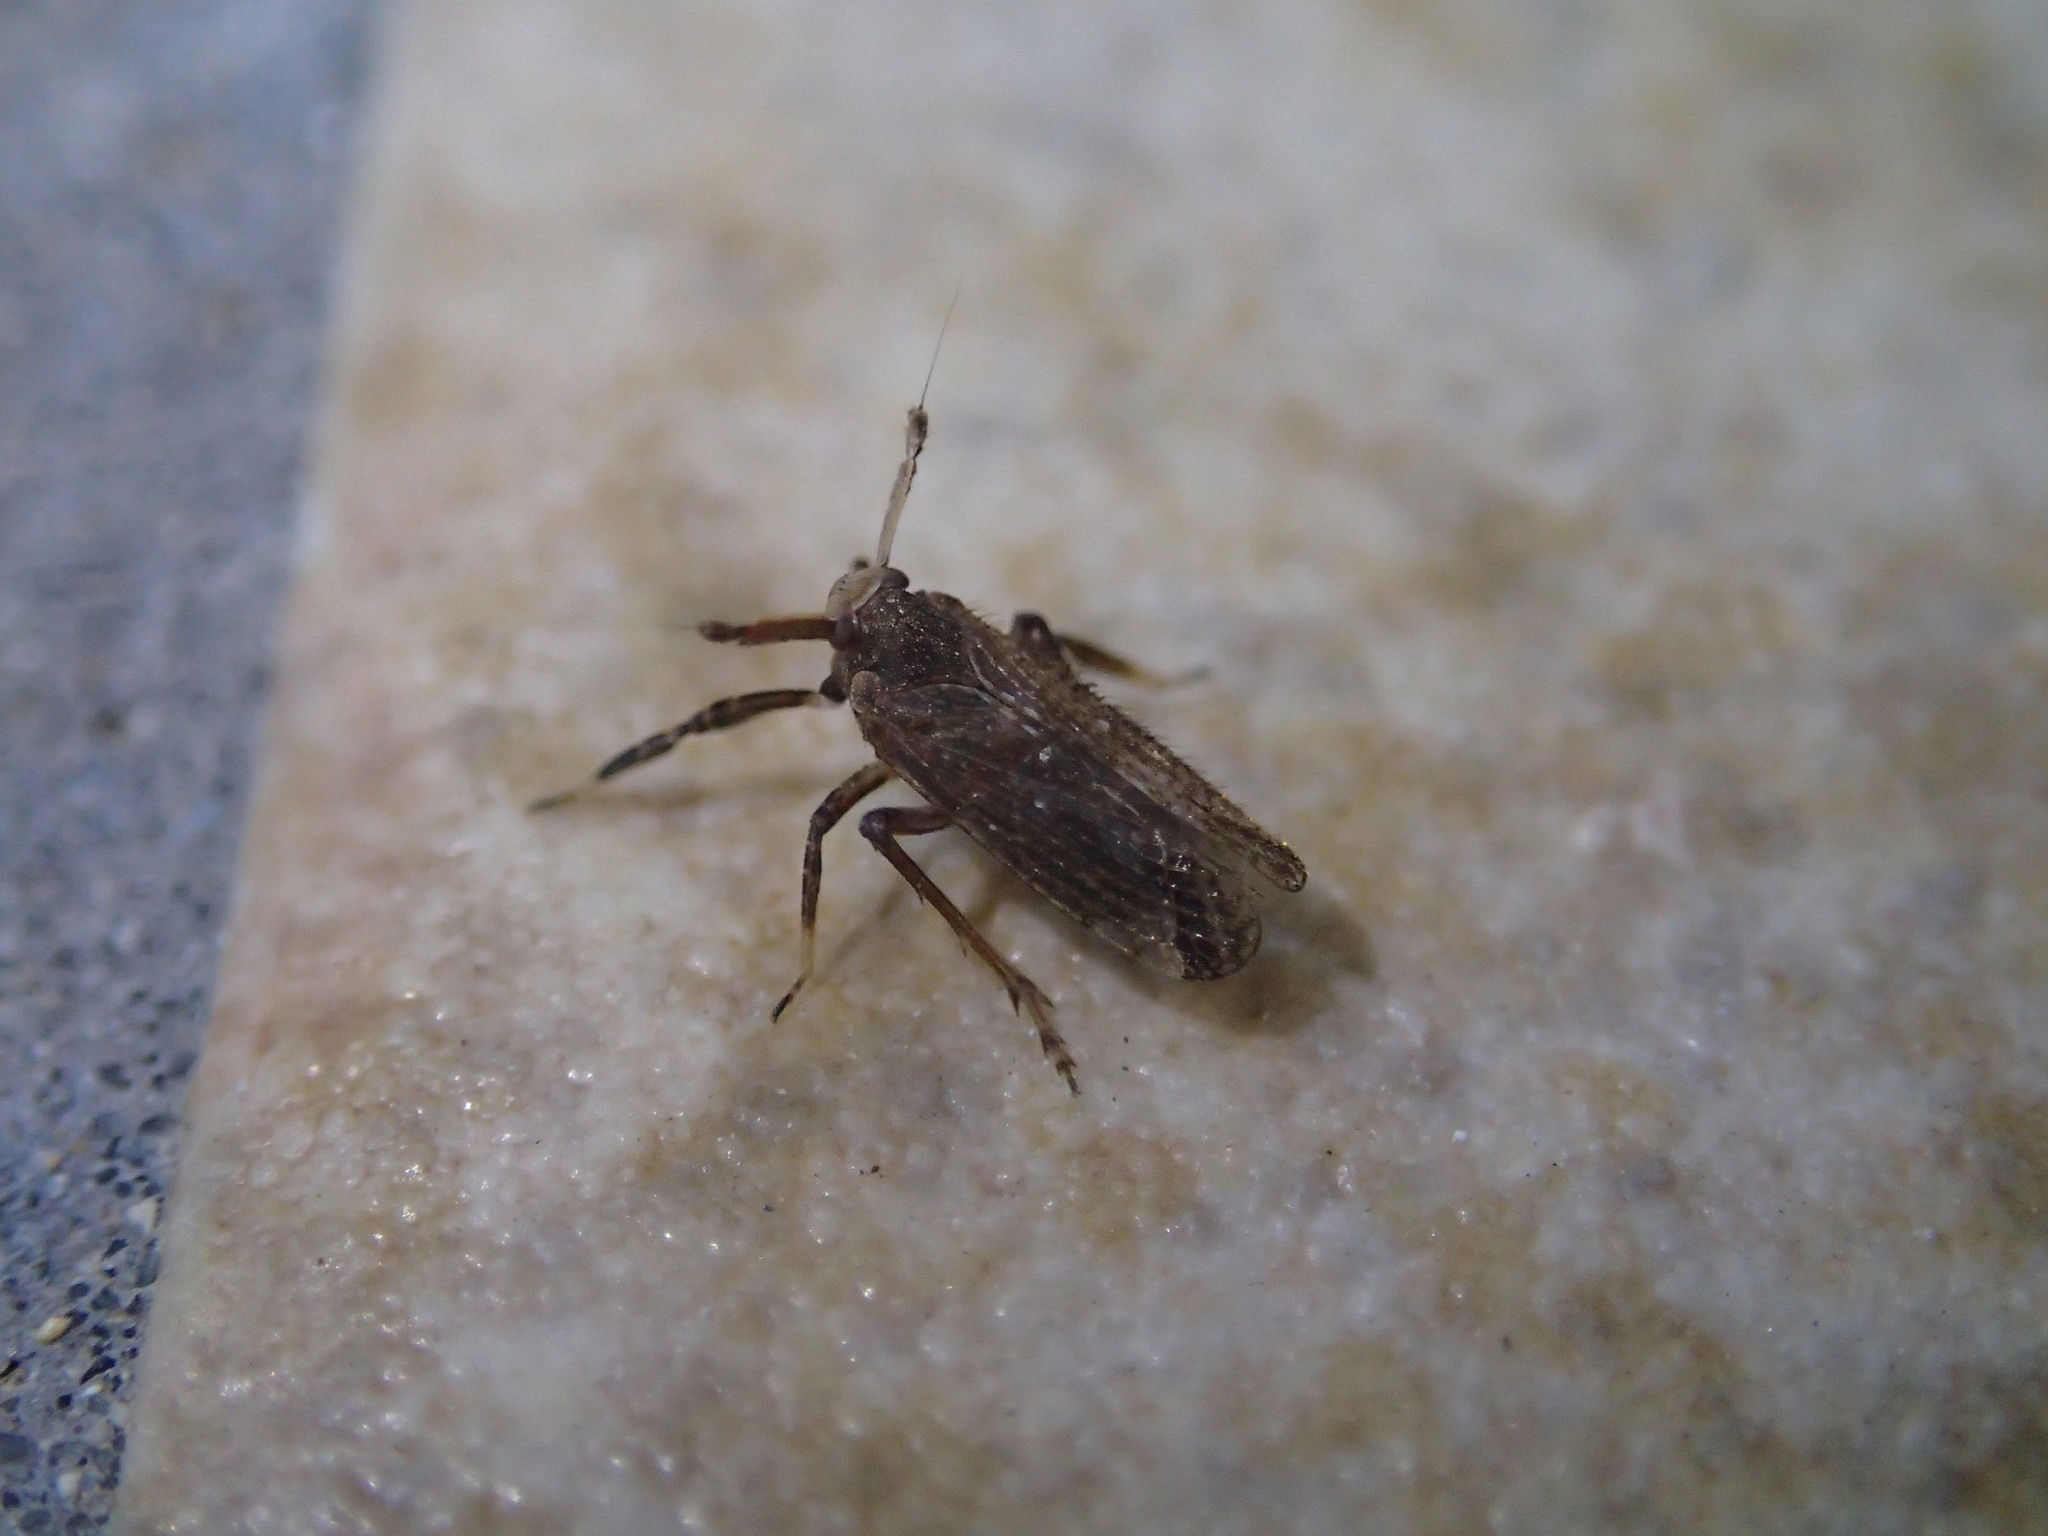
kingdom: Animalia
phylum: Arthropoda
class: Insecta
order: Hemiptera
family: Delphacidae
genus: Asiraca
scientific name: Asiraca clavicornis
